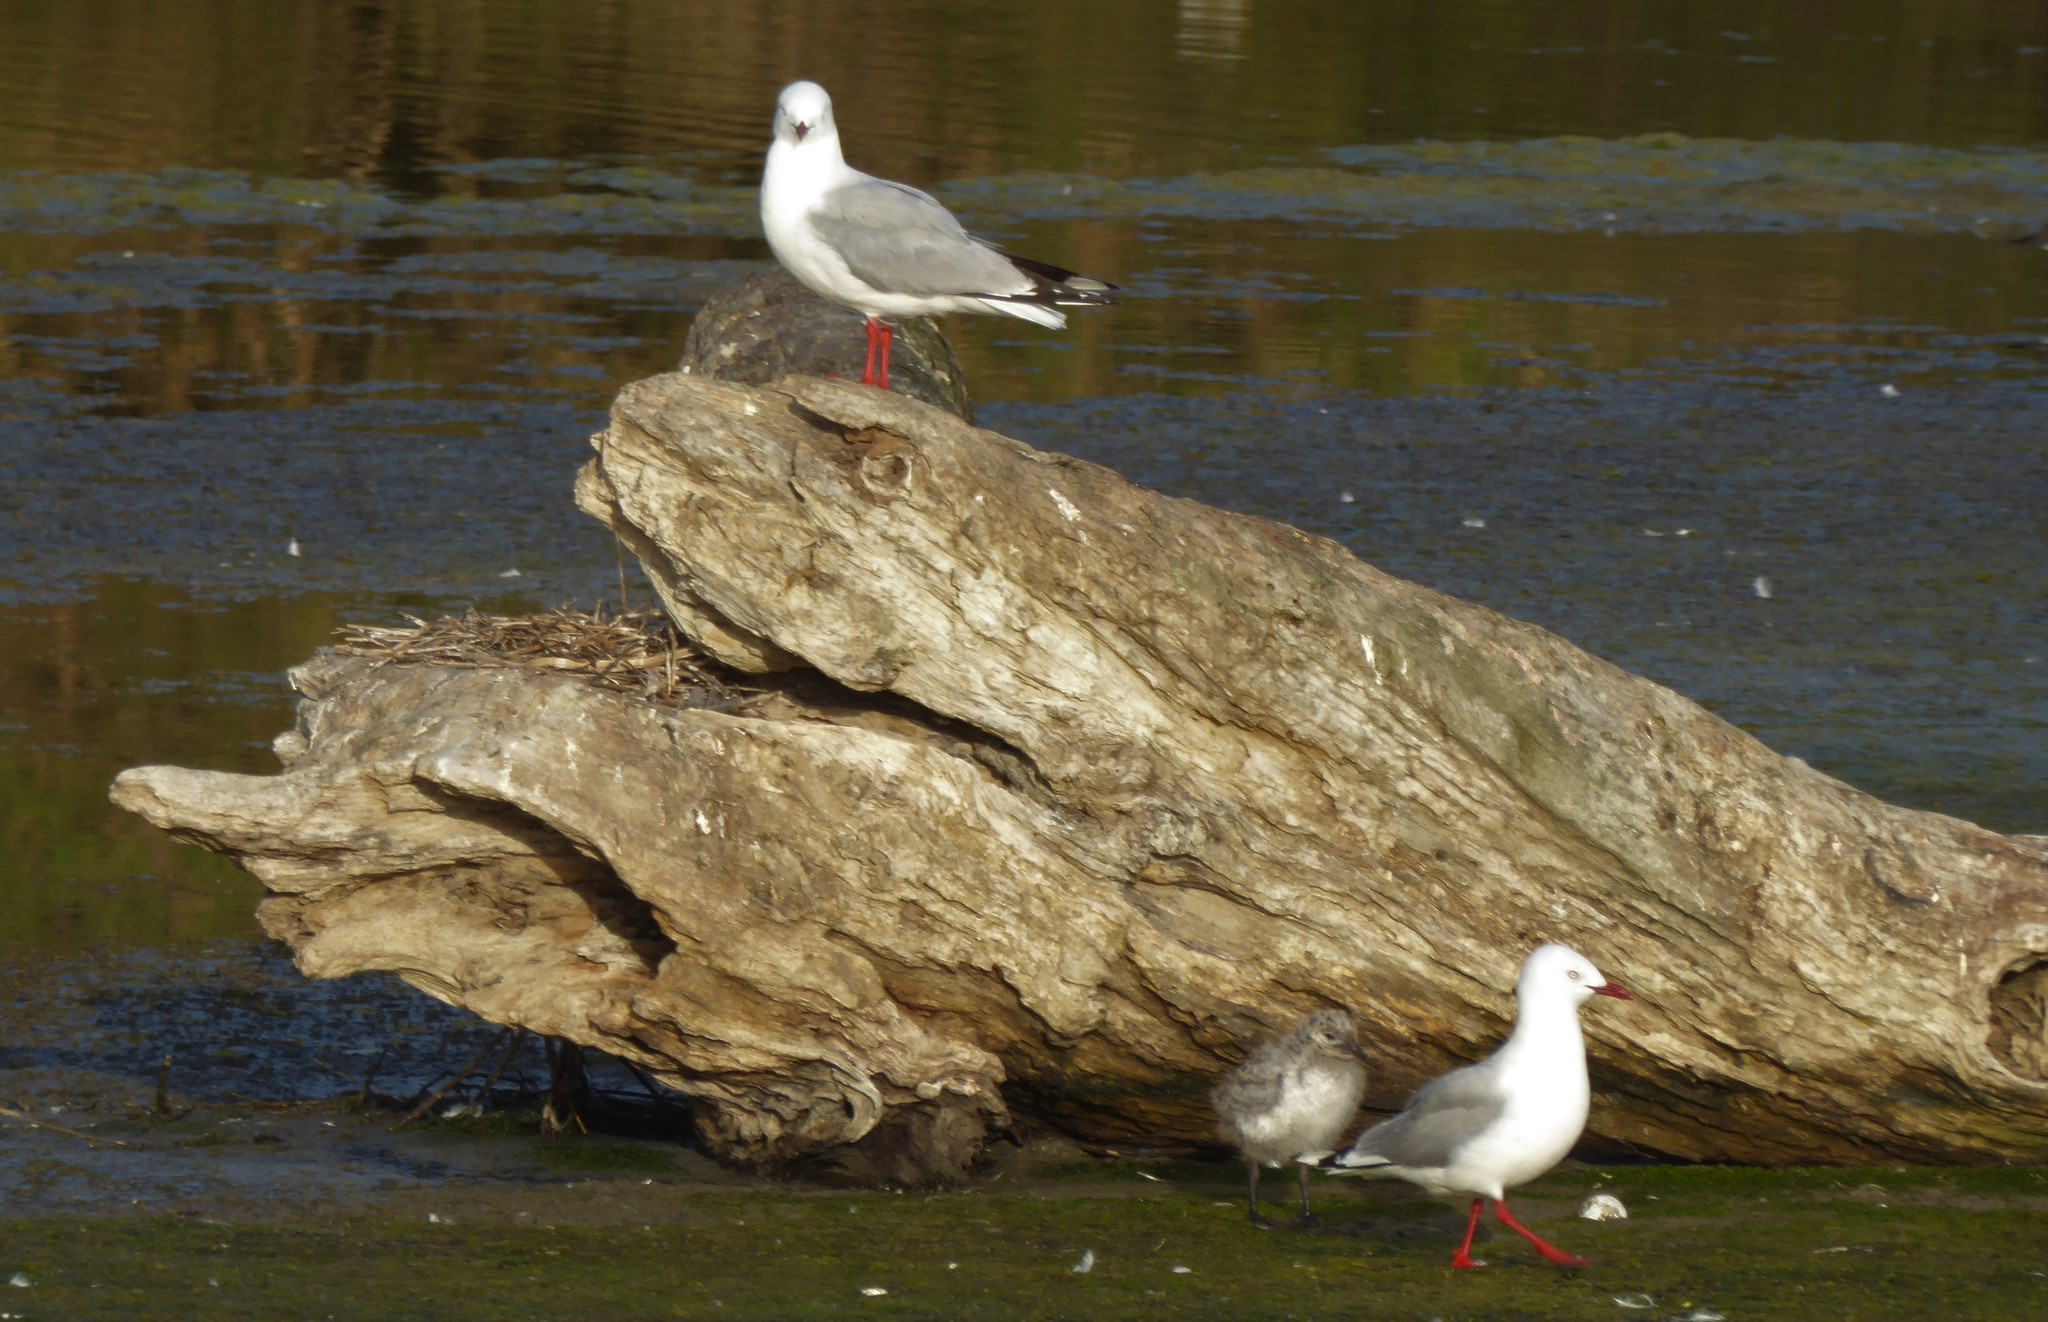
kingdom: Animalia
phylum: Chordata
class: Aves
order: Charadriiformes
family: Laridae
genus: Chroicocephalus
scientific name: Chroicocephalus novaehollandiae
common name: Silver gull
